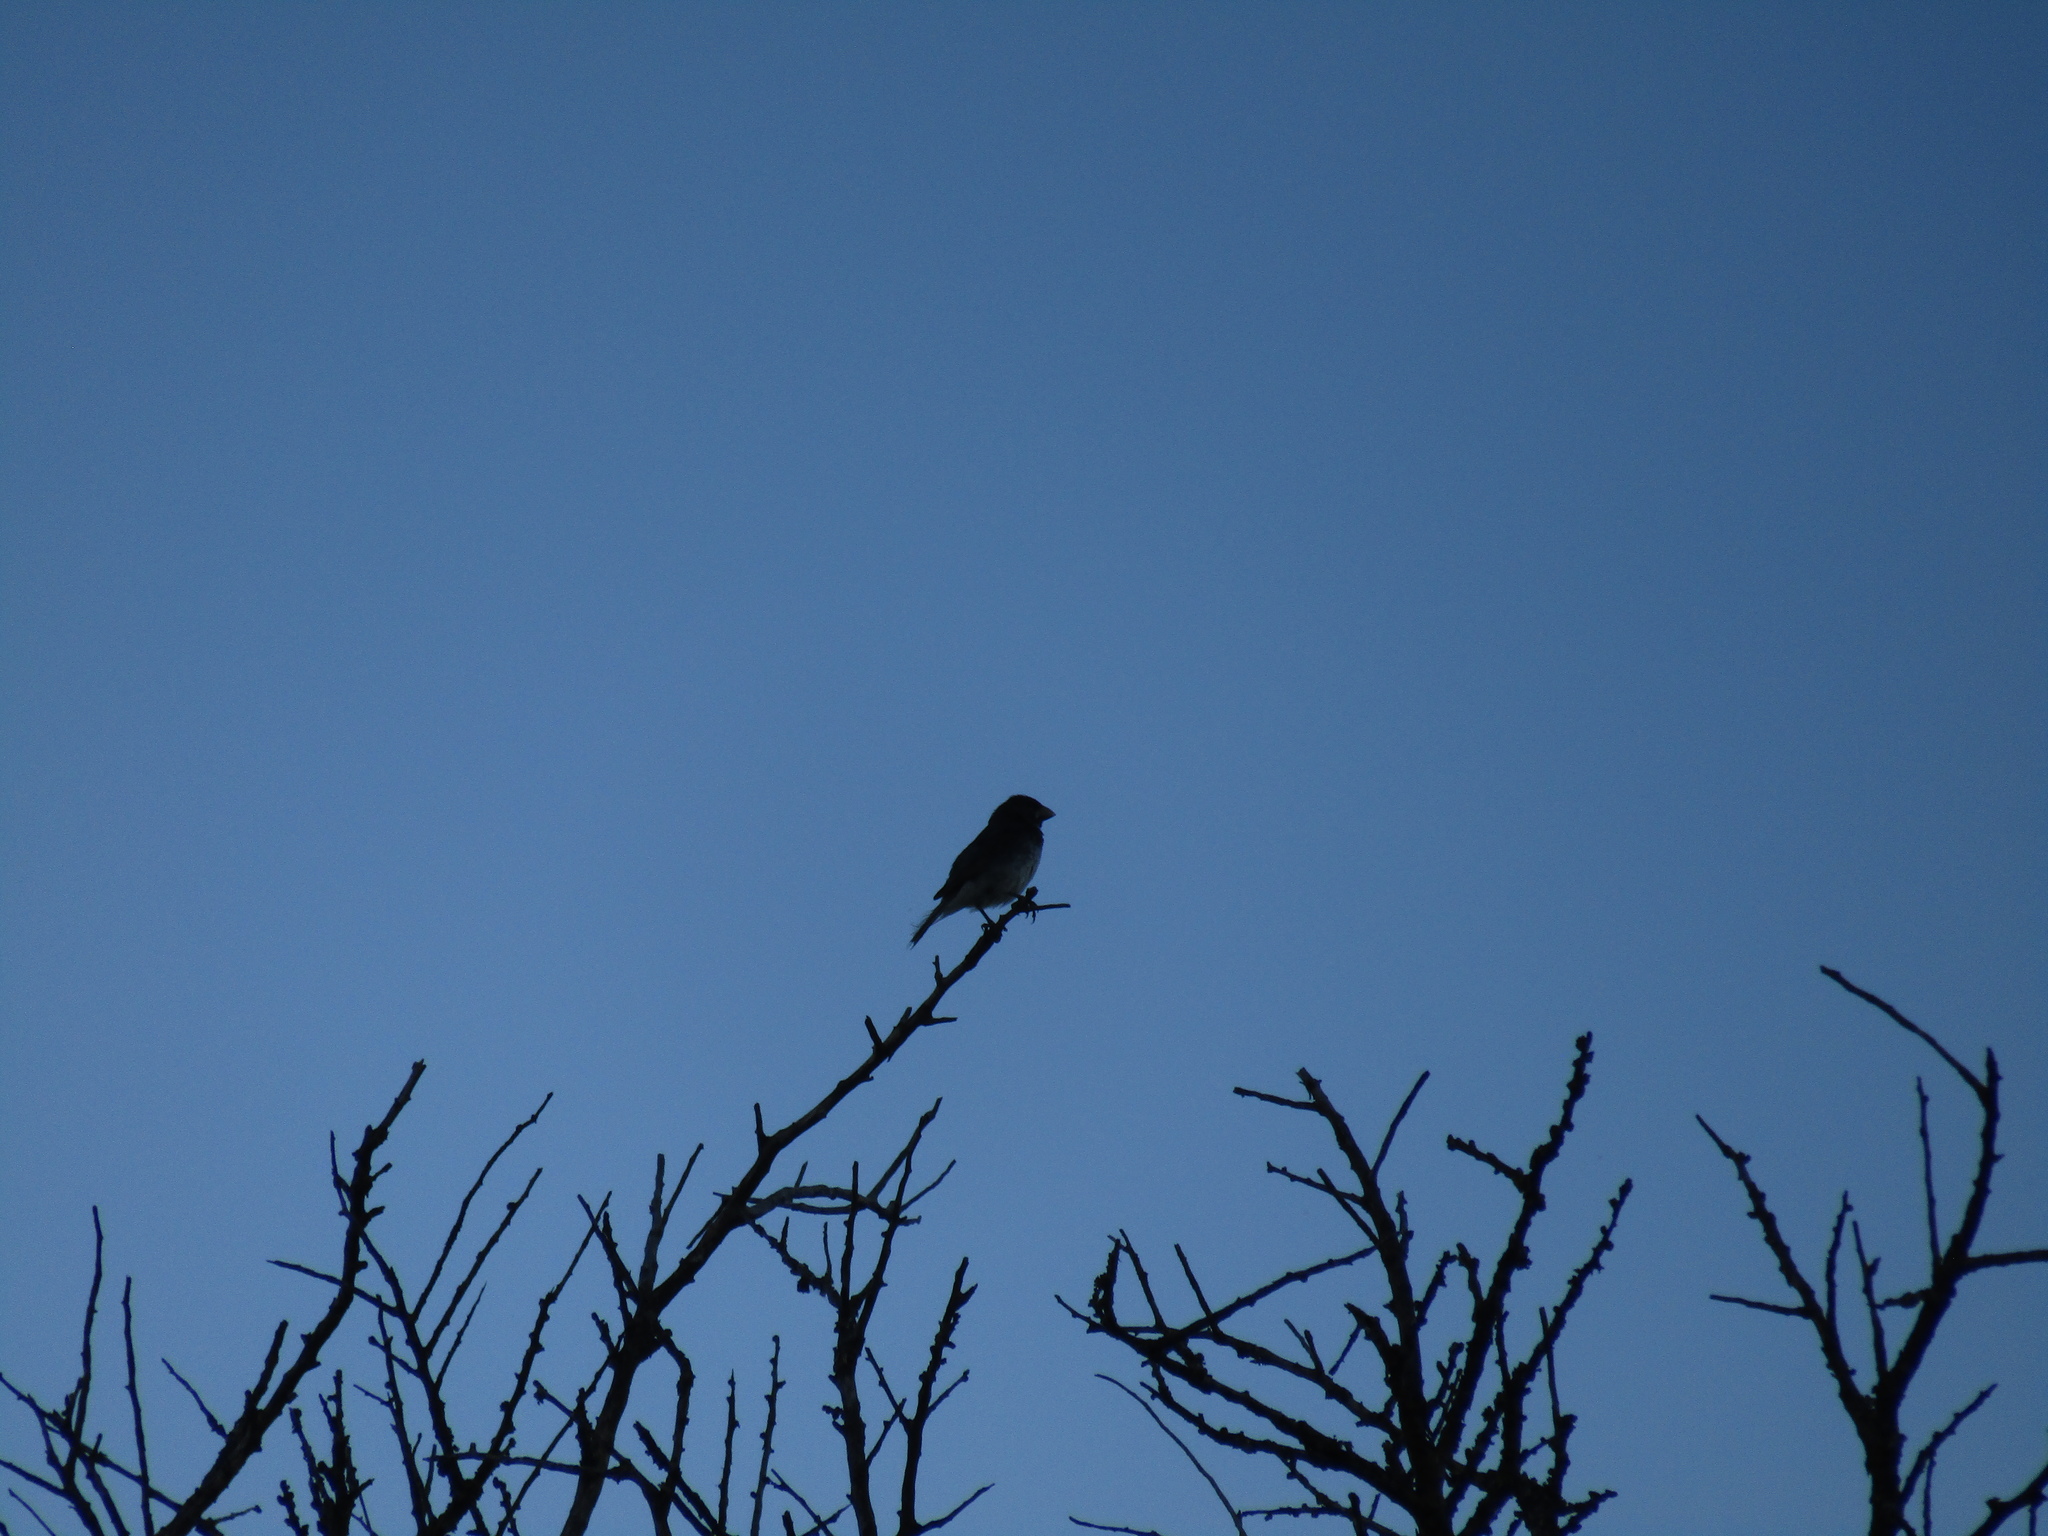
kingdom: Animalia
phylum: Chordata
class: Aves
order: Passeriformes
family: Thraupidae
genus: Sporophila
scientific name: Sporophila caerulescens
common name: Double-collared seedeater
